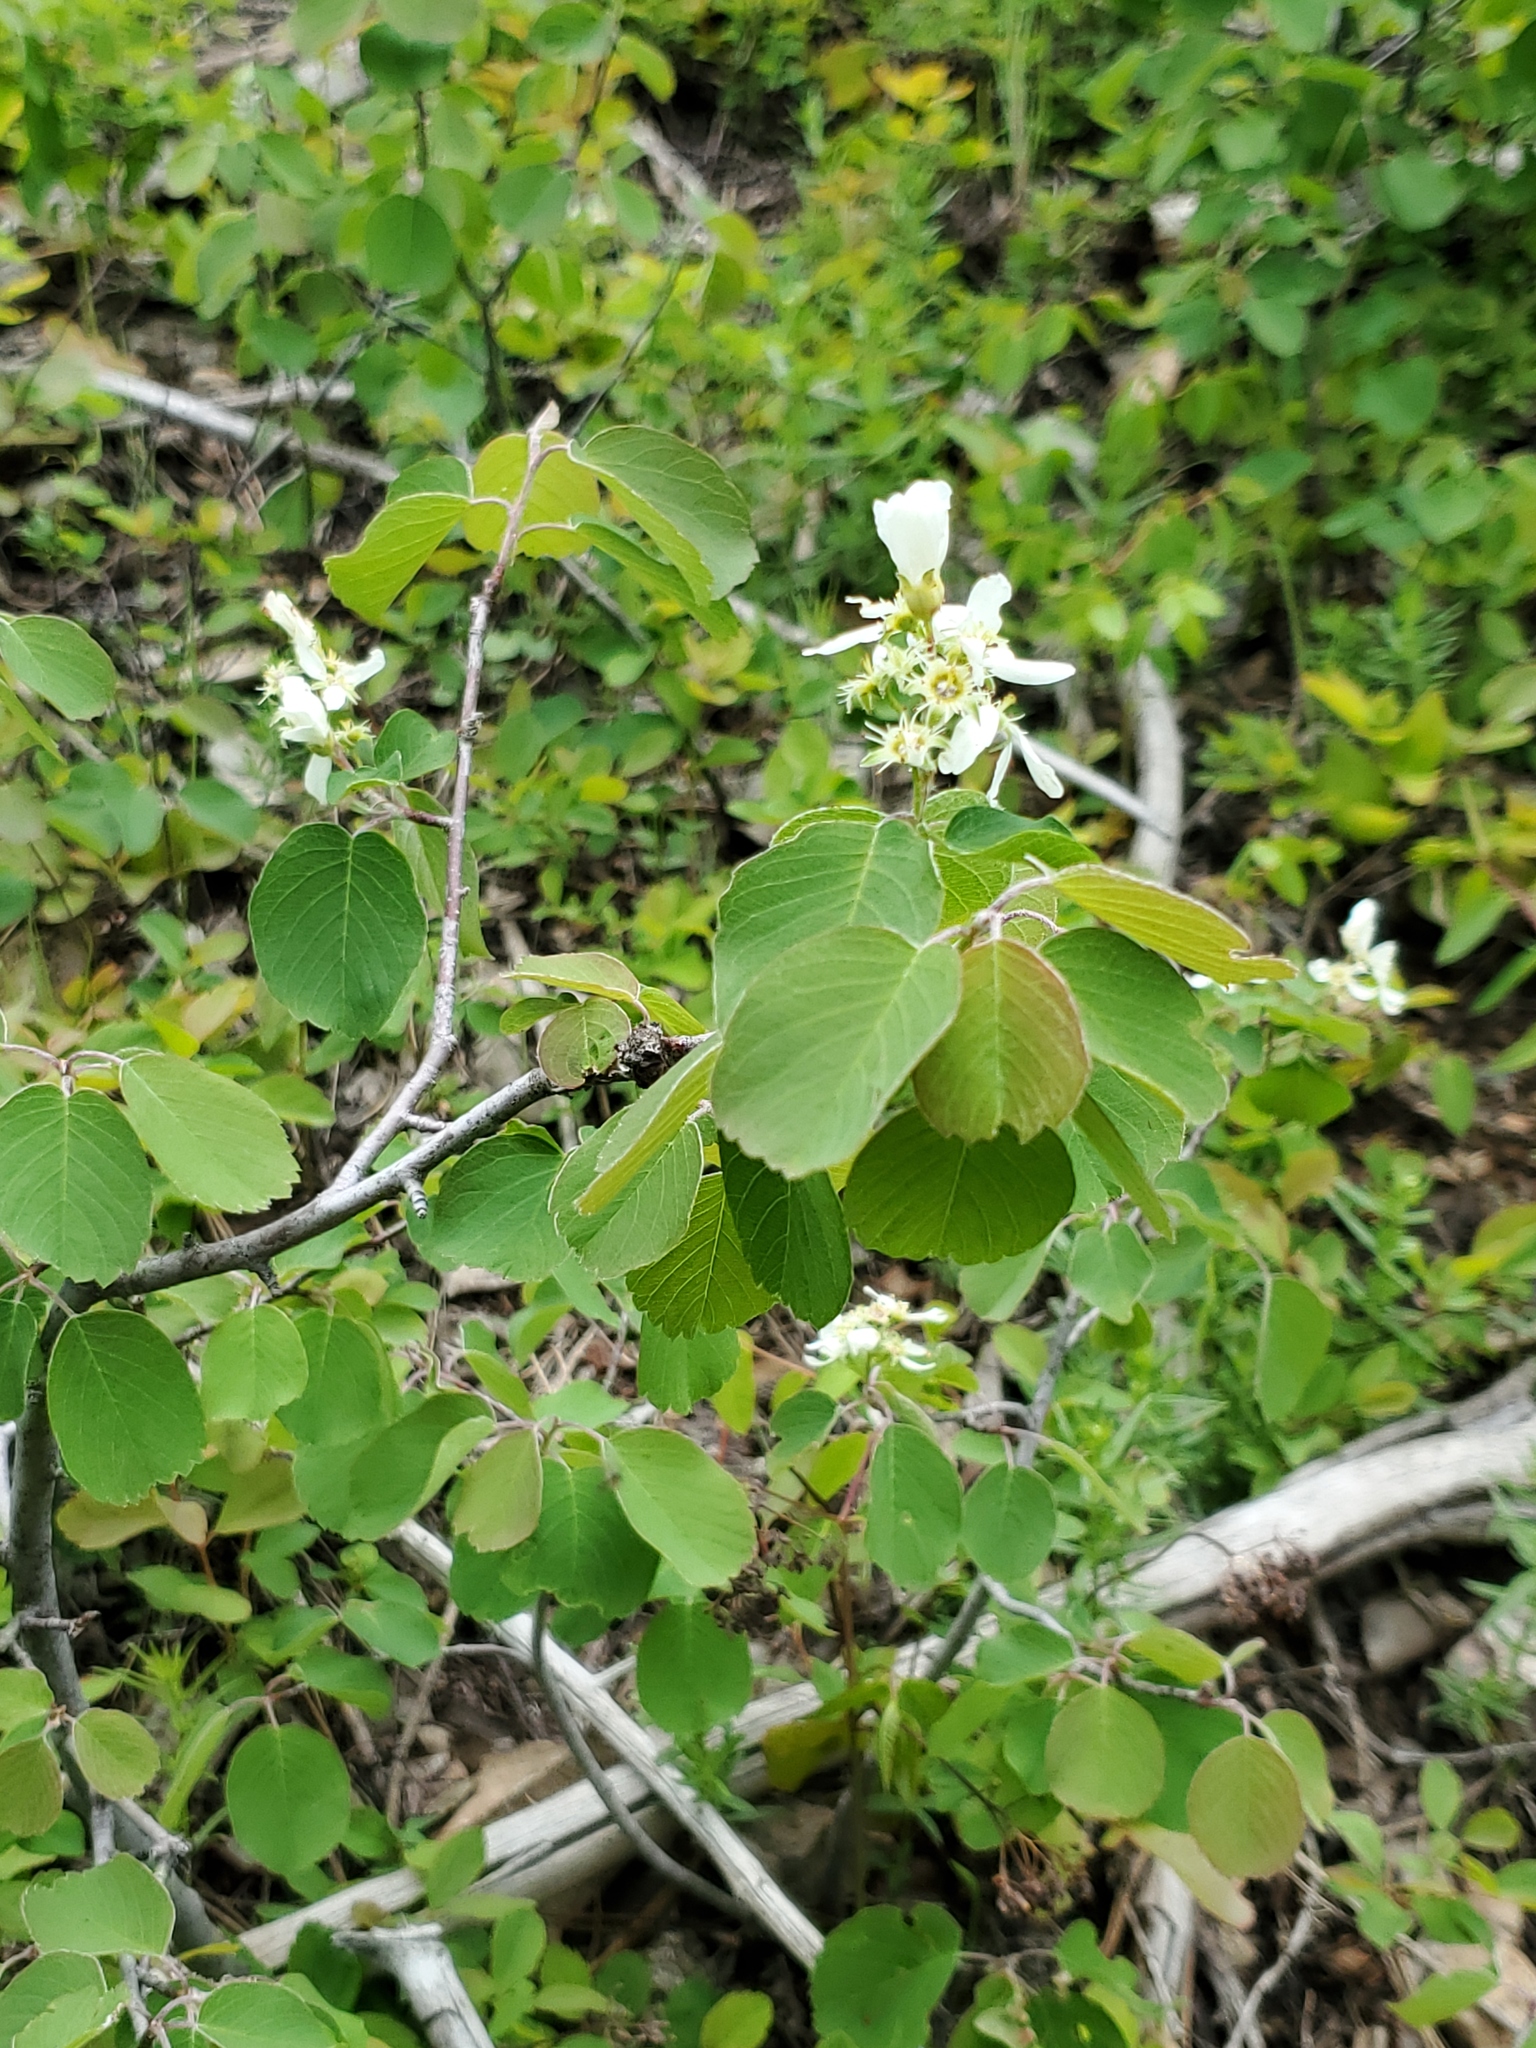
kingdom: Plantae
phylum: Tracheophyta
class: Magnoliopsida
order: Rosales
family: Rosaceae
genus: Amelanchier
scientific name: Amelanchier alnifolia
